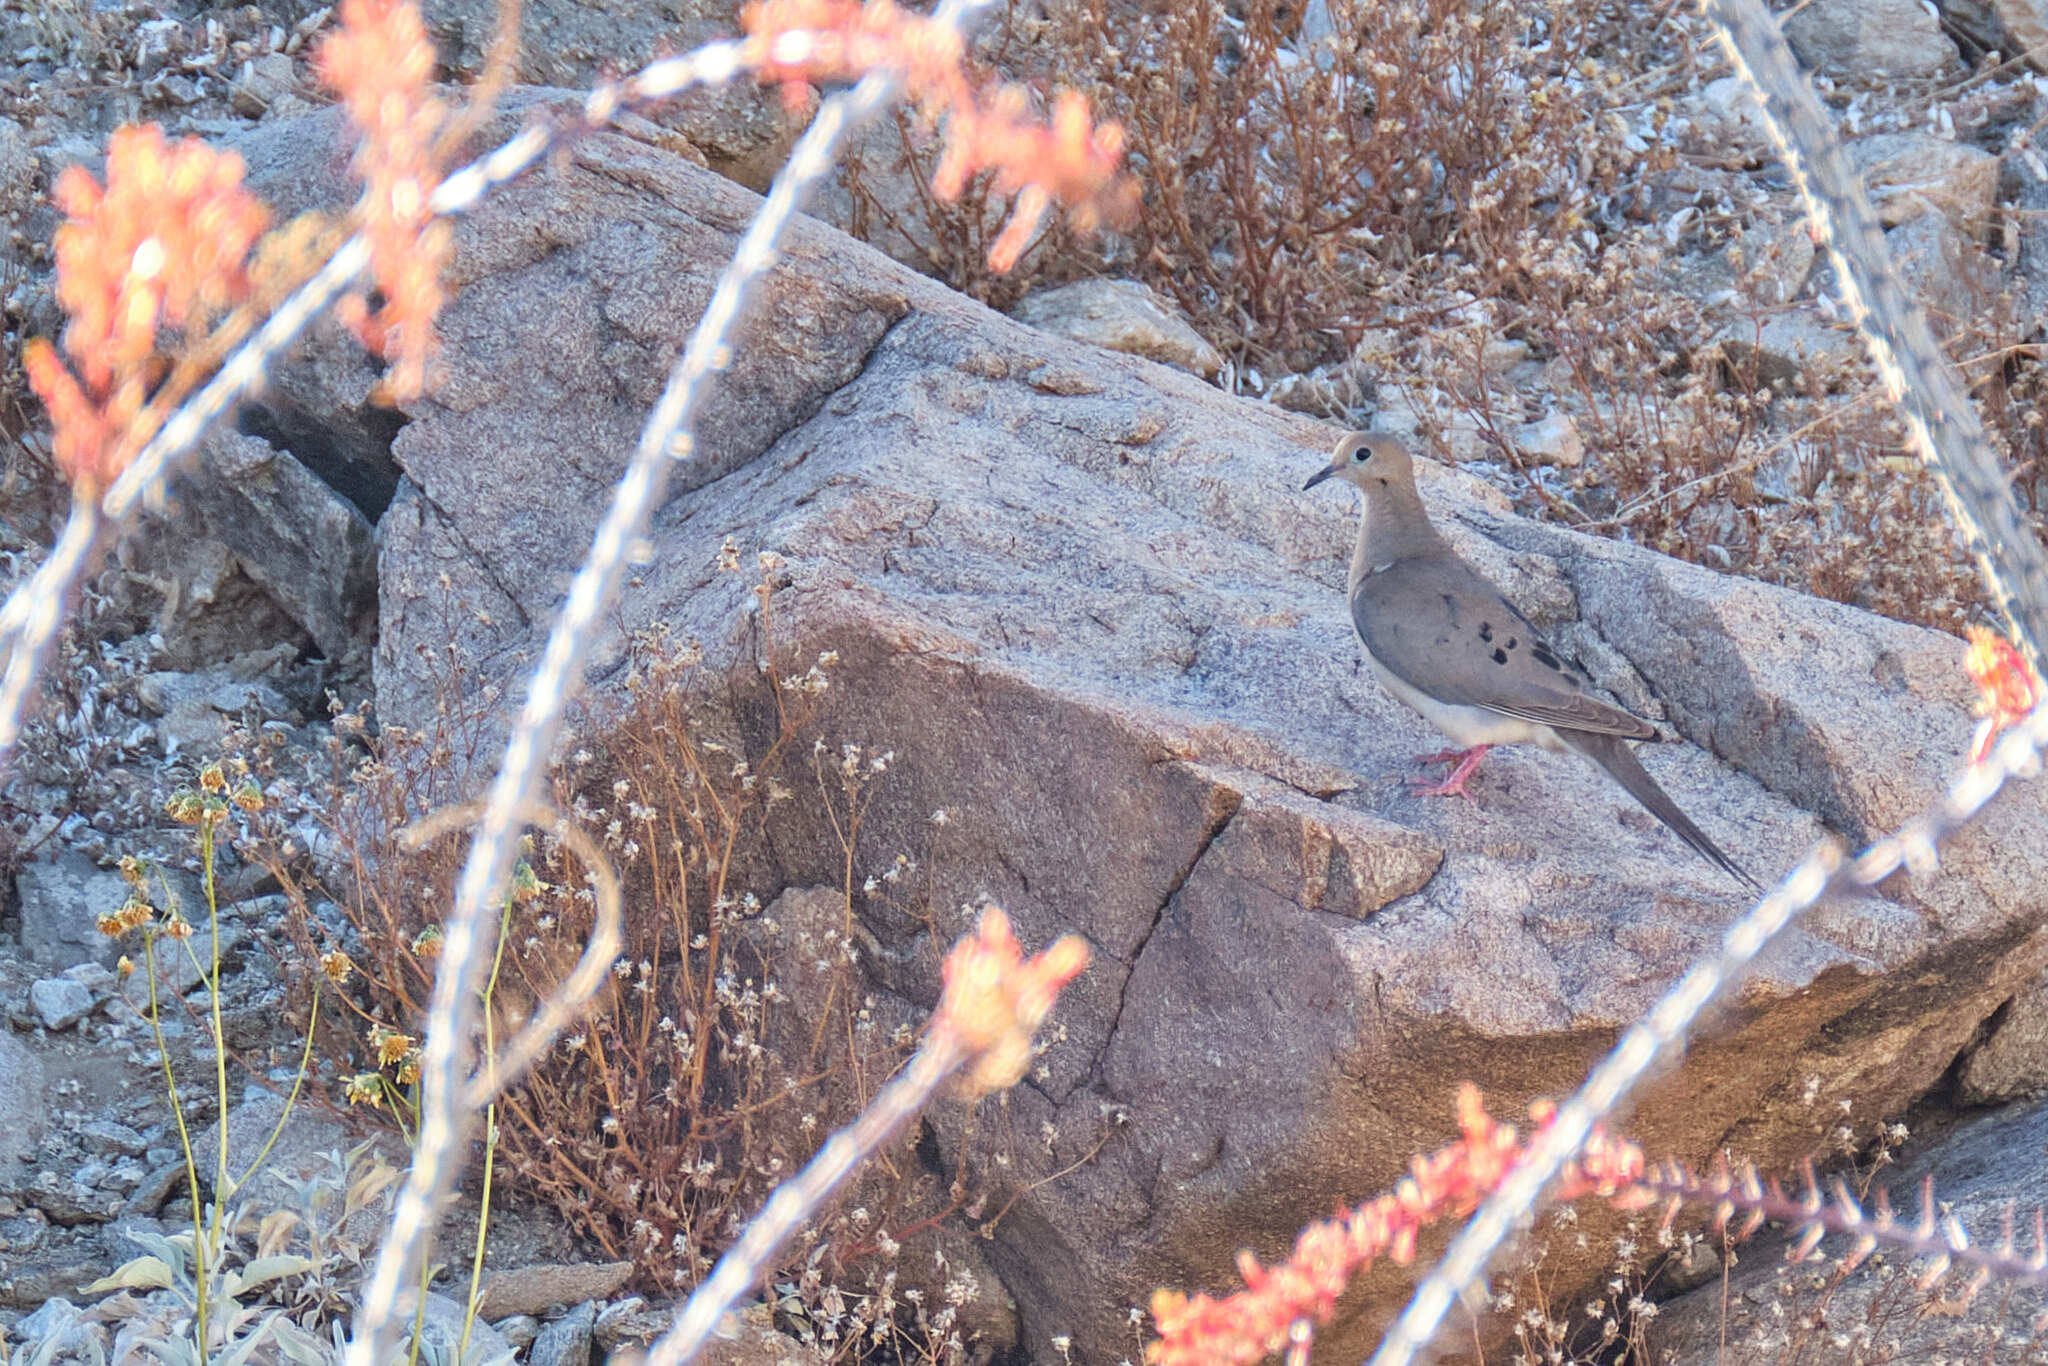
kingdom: Animalia
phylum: Chordata
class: Aves
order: Columbiformes
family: Columbidae
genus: Zenaida
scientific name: Zenaida macroura
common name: Mourning dove
